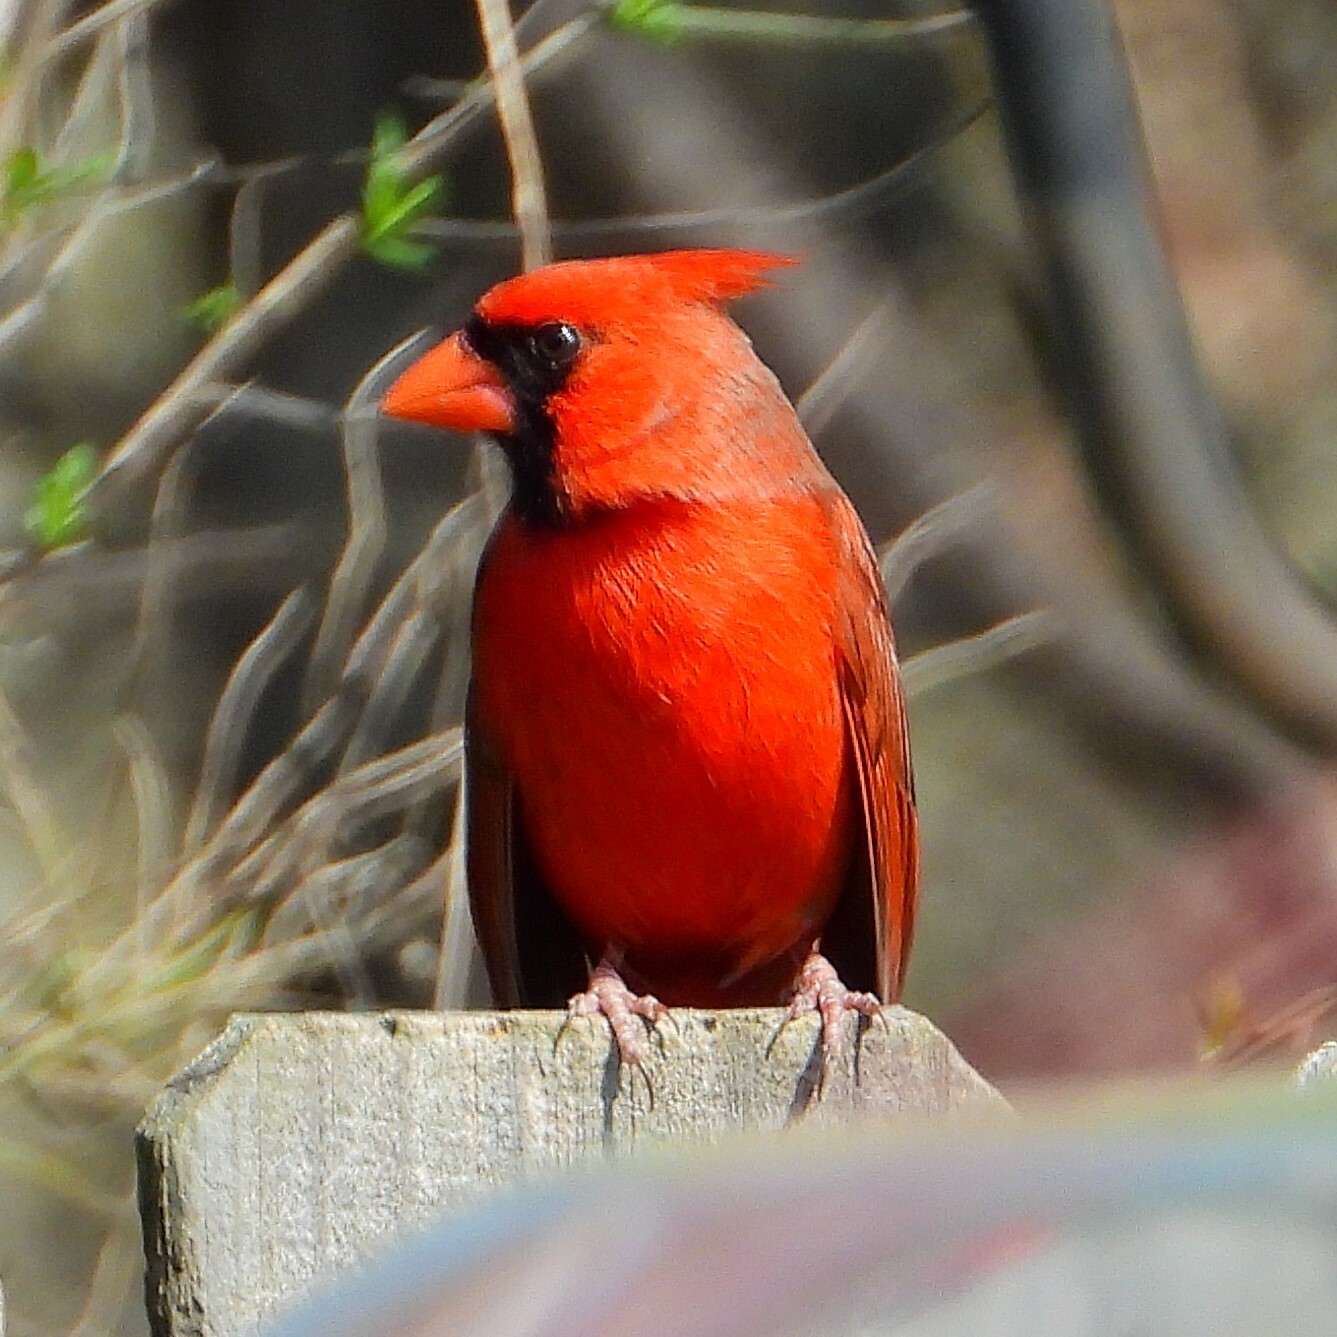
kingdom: Animalia
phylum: Chordata
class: Aves
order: Passeriformes
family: Cardinalidae
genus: Cardinalis
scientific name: Cardinalis cardinalis
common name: Northern cardinal
